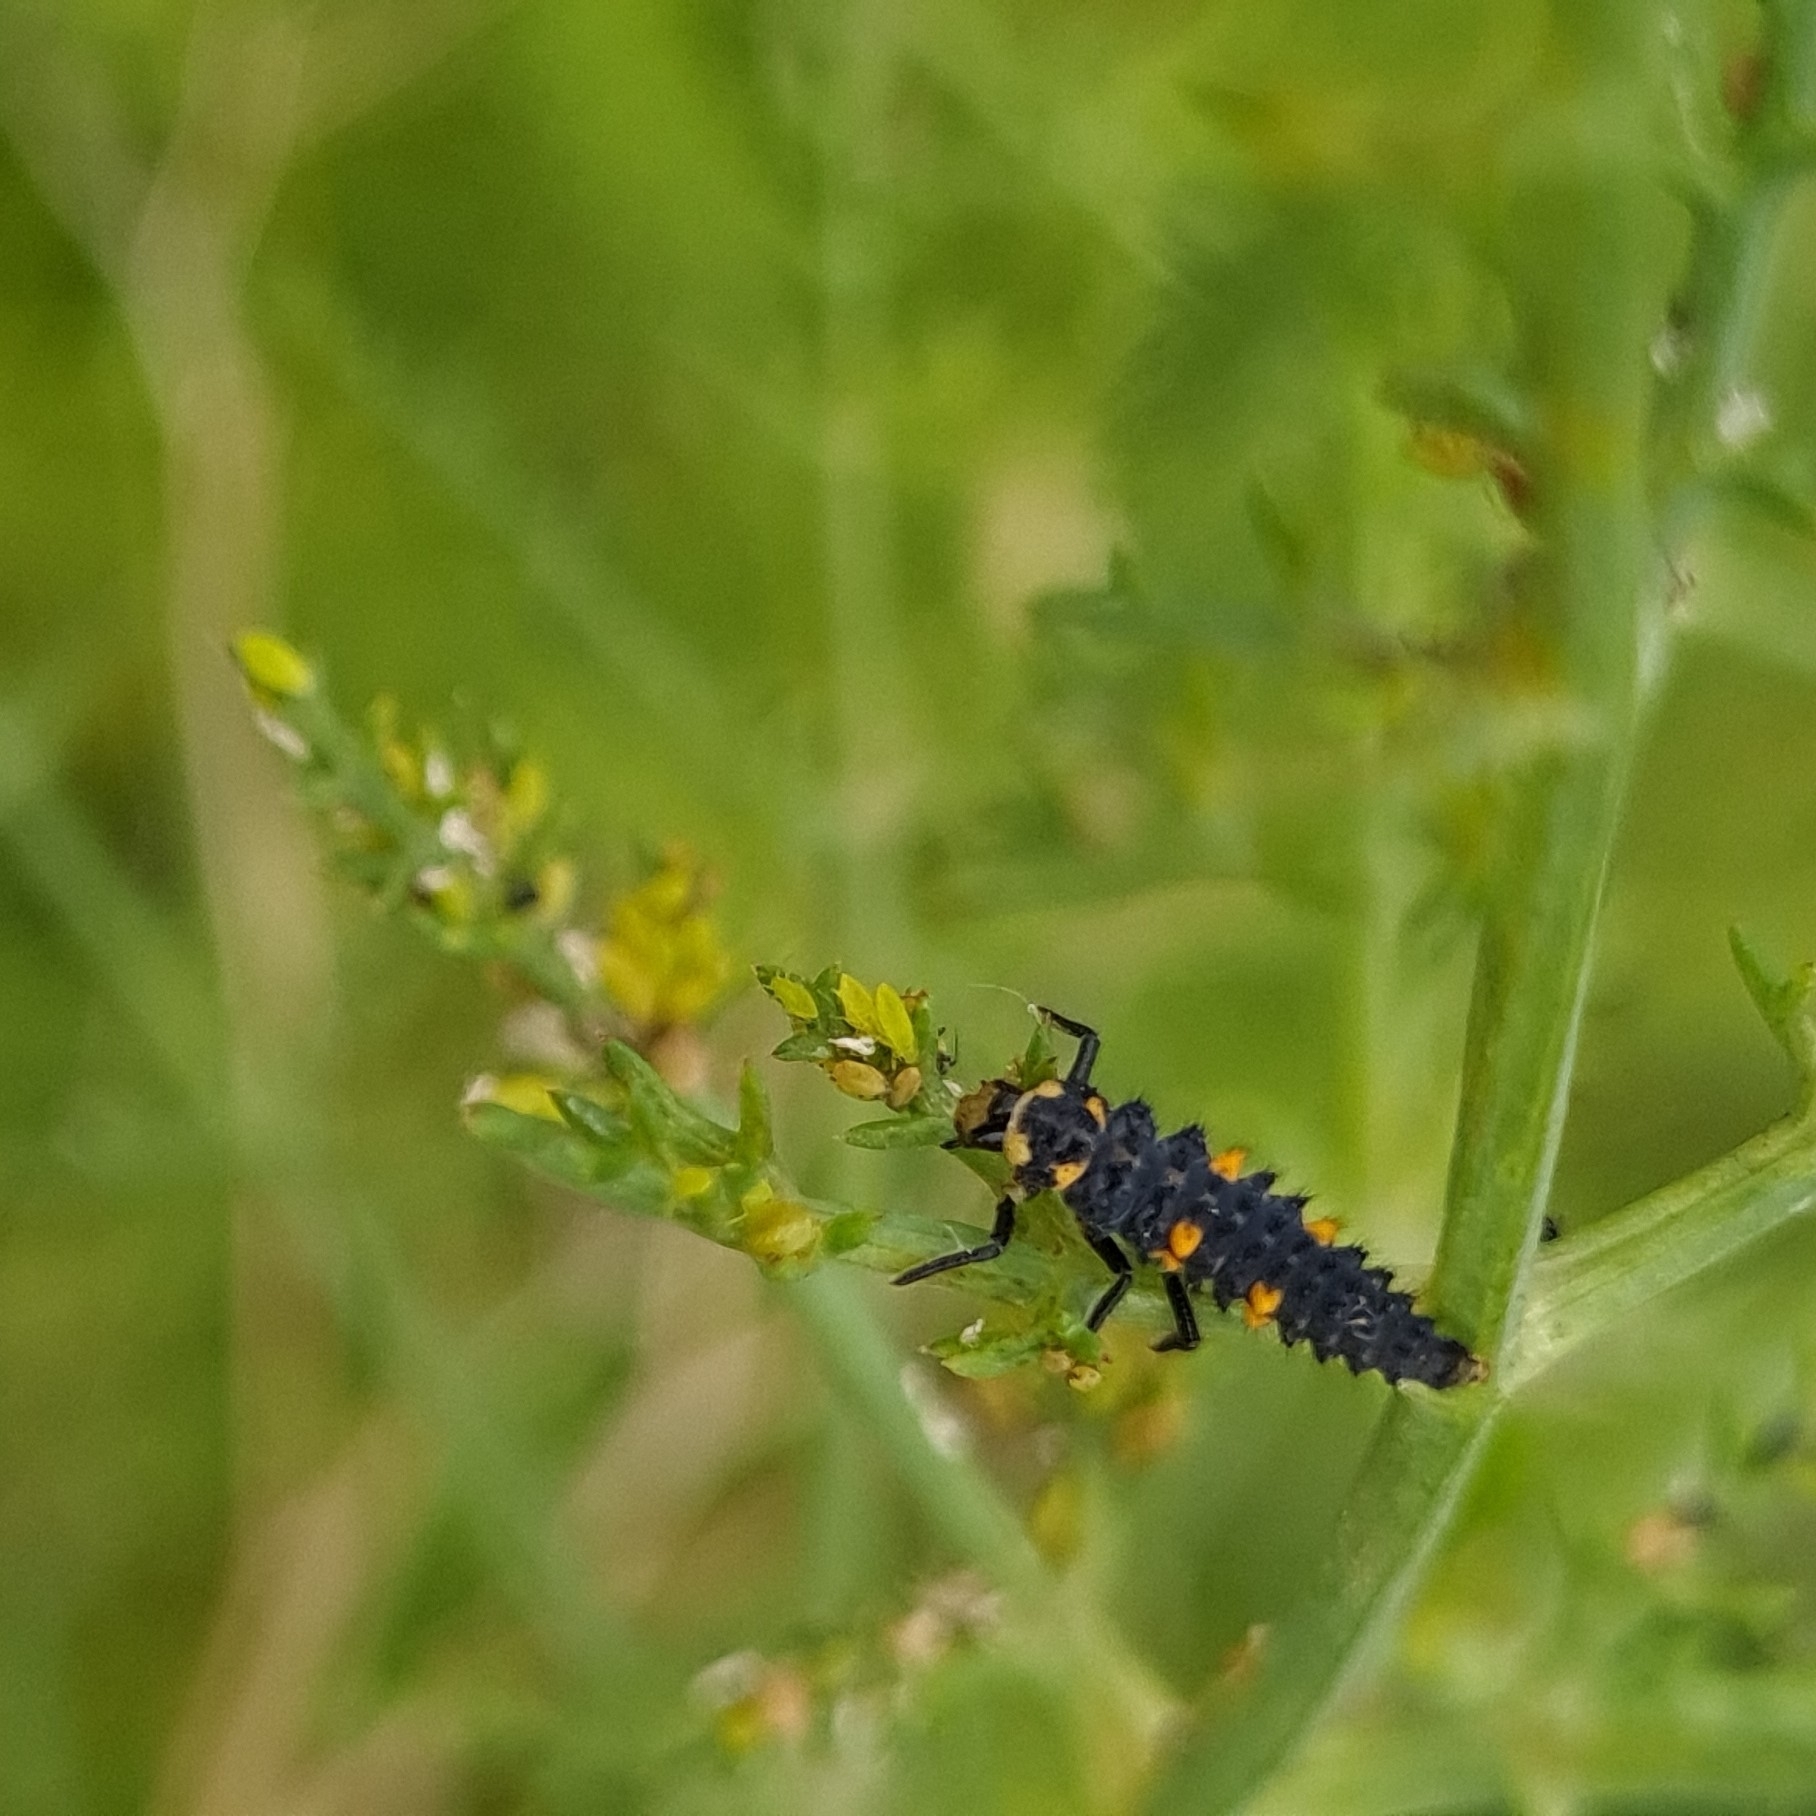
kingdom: Animalia
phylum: Arthropoda
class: Insecta
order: Coleoptera
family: Coccinellidae
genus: Coccinella
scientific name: Coccinella septempunctata
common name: Sevenspotted lady beetle
